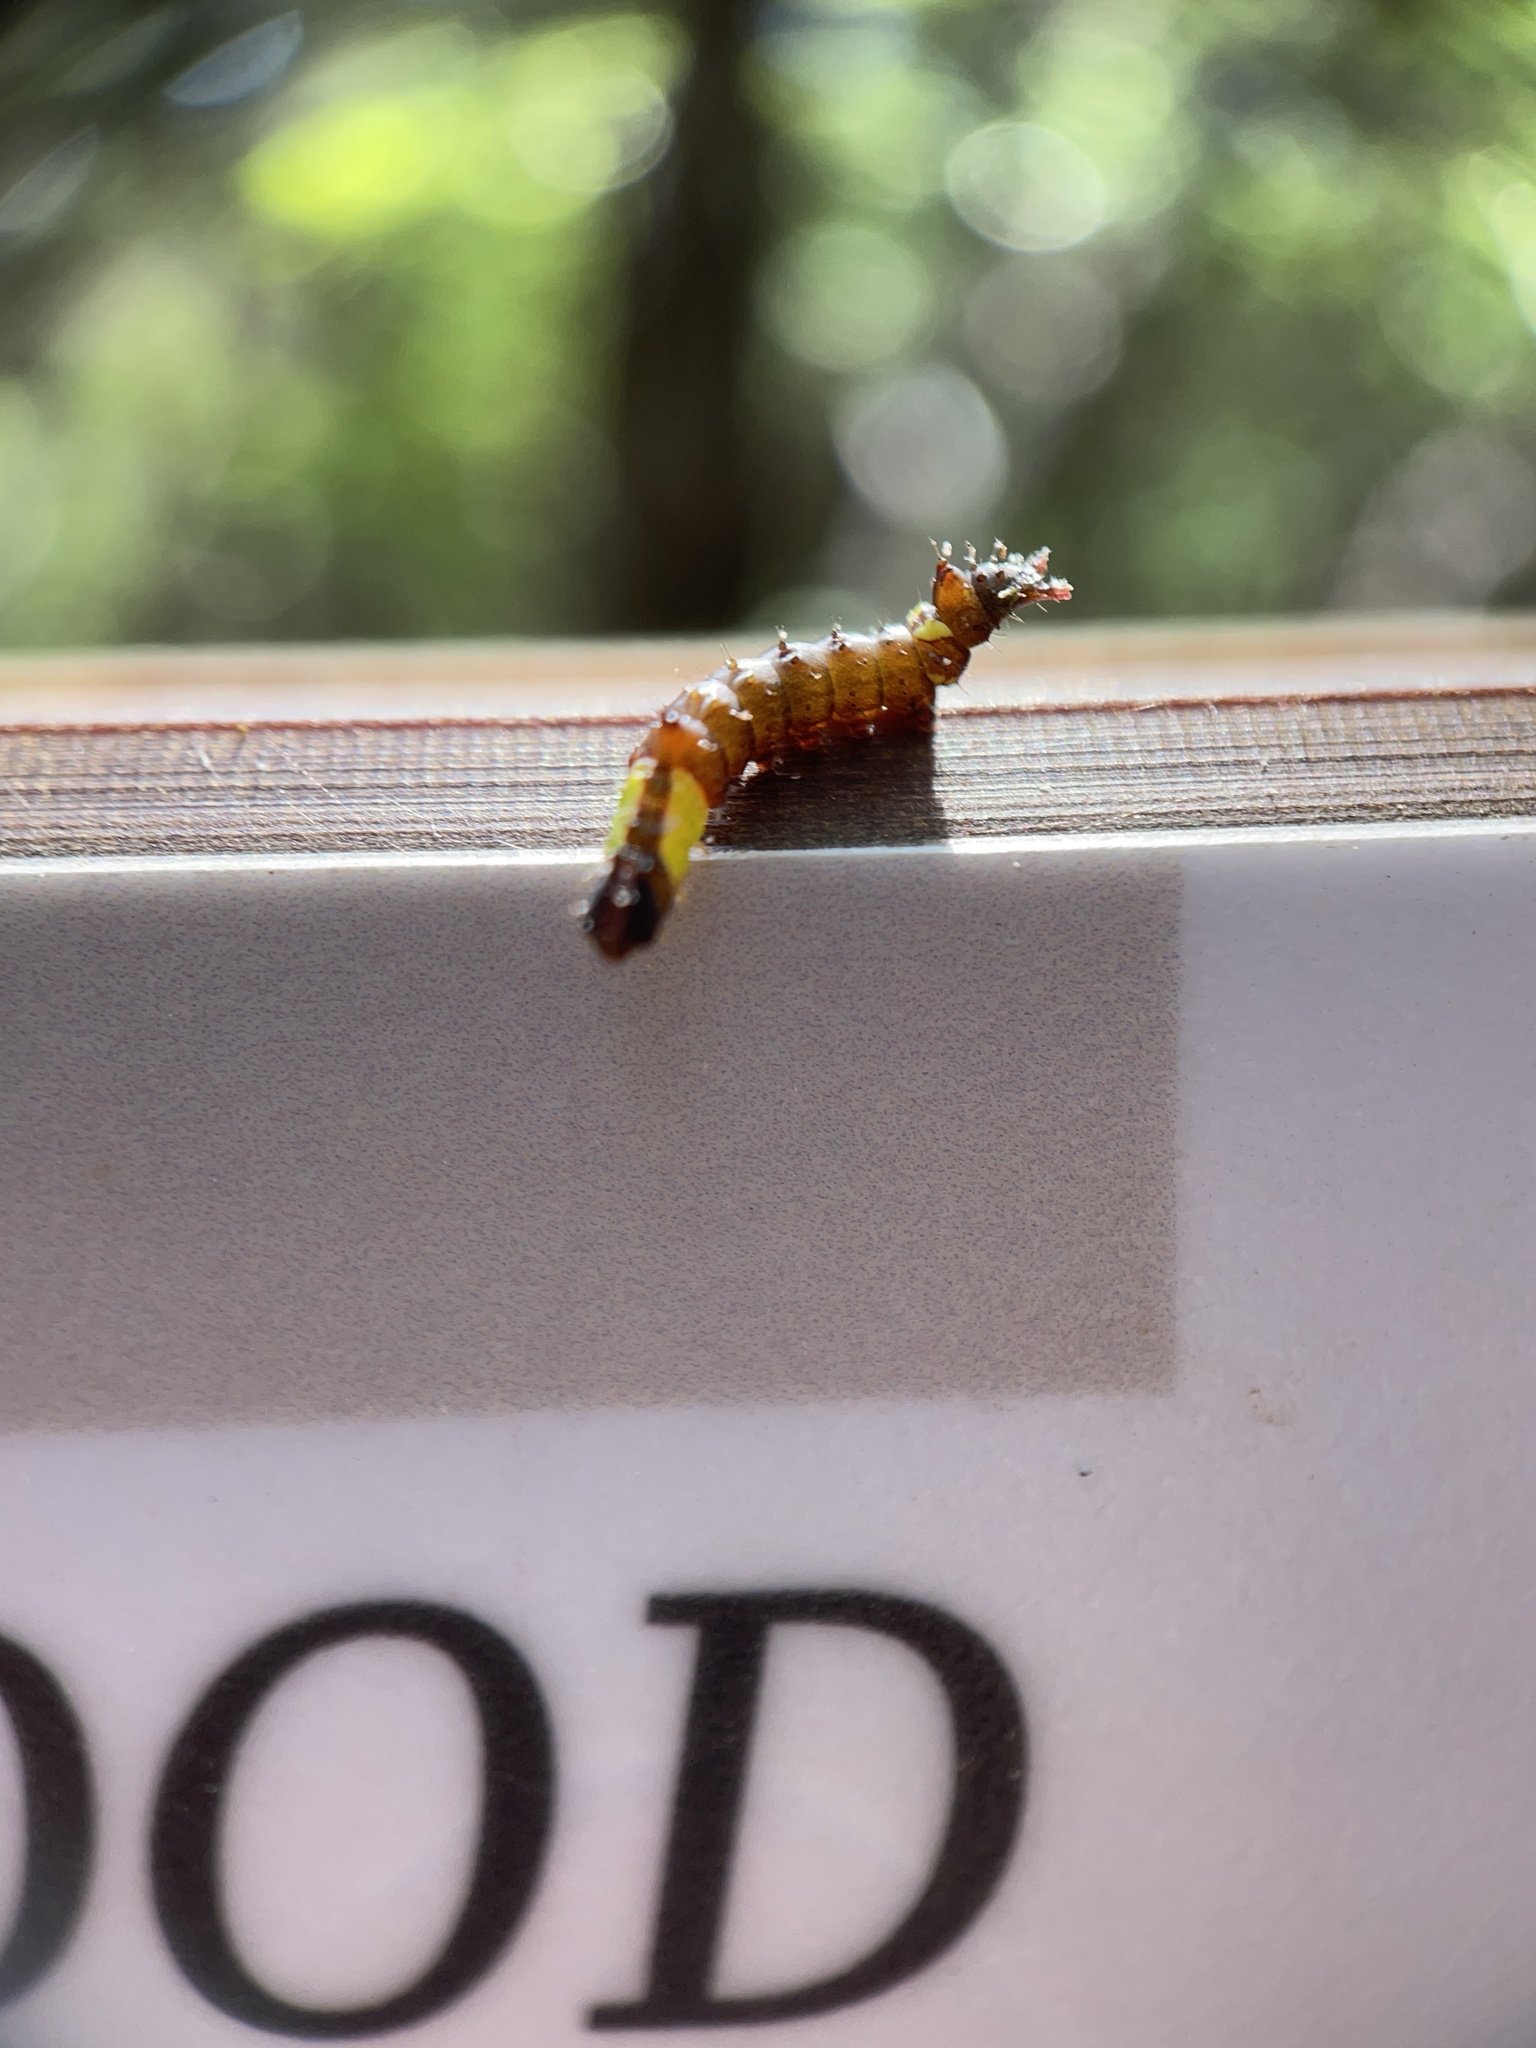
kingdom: Animalia
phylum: Arthropoda
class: Insecta
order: Lepidoptera
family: Notodontidae
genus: Schizura
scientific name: Schizura
